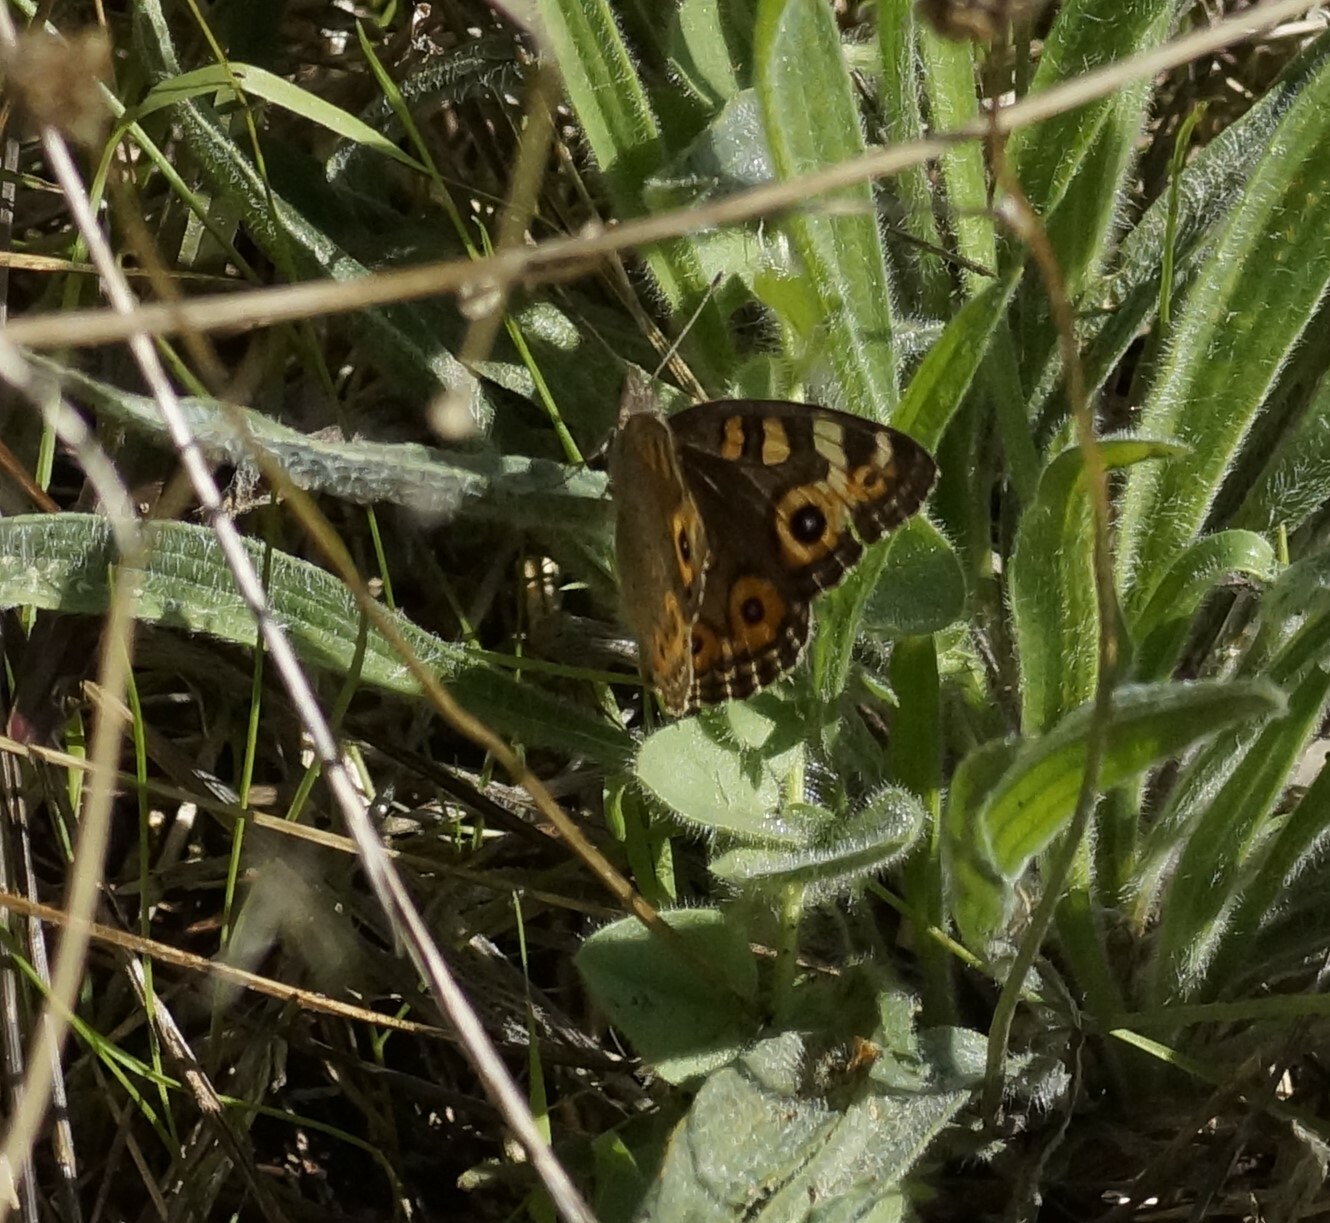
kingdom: Animalia
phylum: Arthropoda
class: Insecta
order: Lepidoptera
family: Nymphalidae
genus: Junonia
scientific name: Junonia villida
